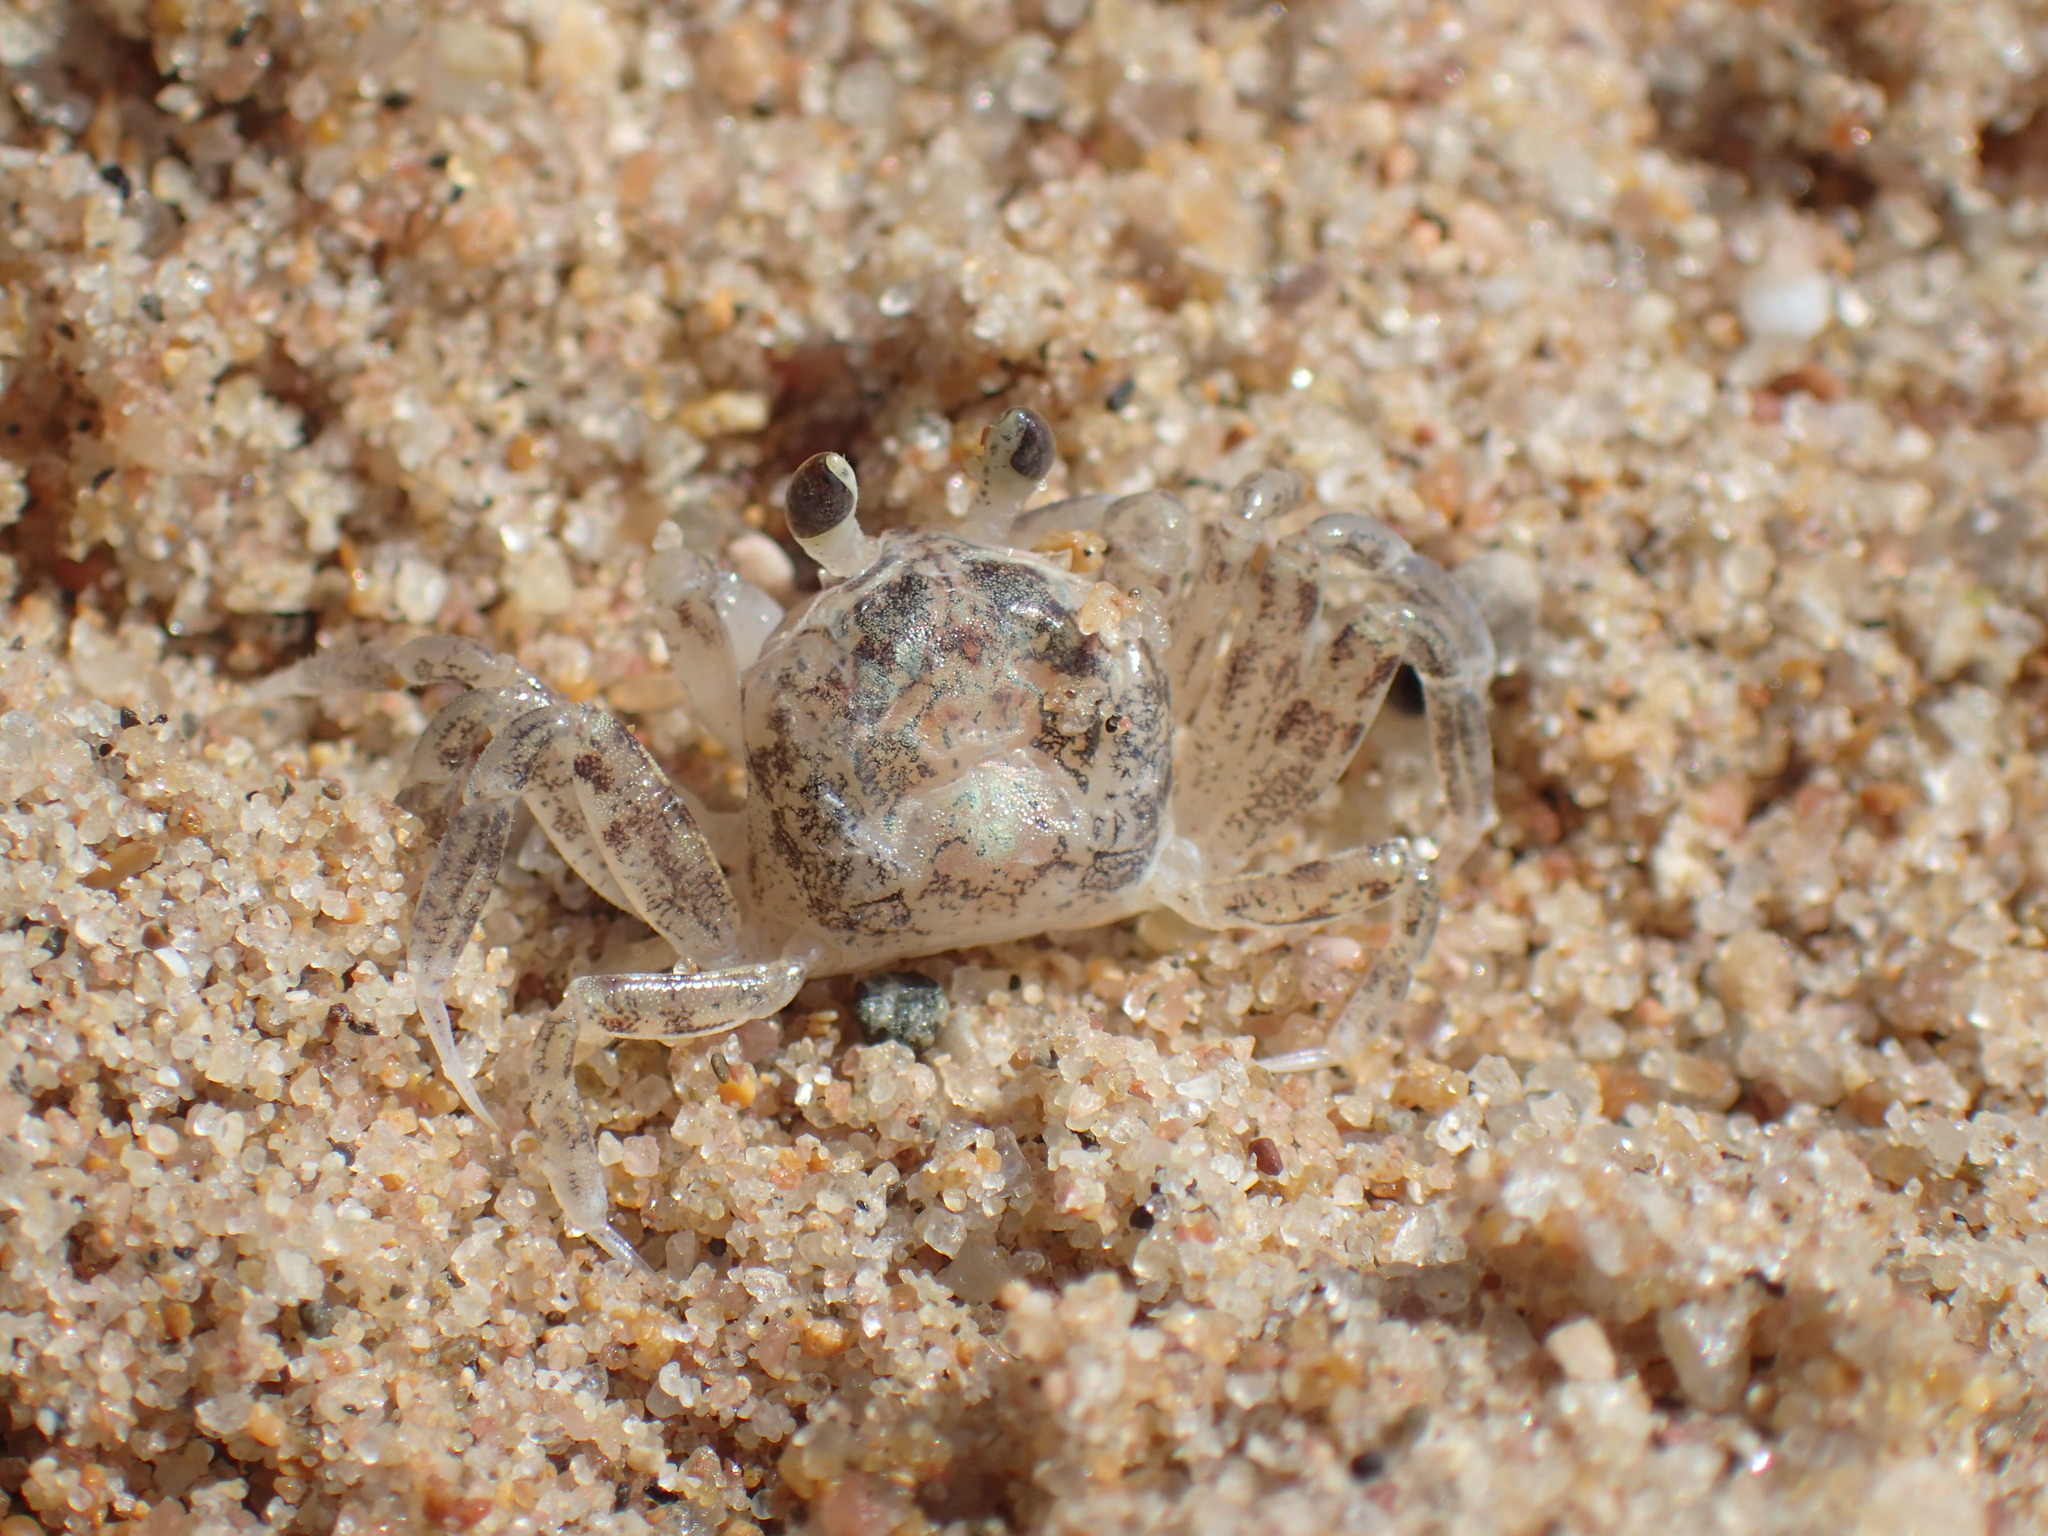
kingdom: Animalia
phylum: Arthropoda
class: Malacostraca
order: Decapoda
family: Ocypodidae
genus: Ocypode
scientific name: Ocypode
